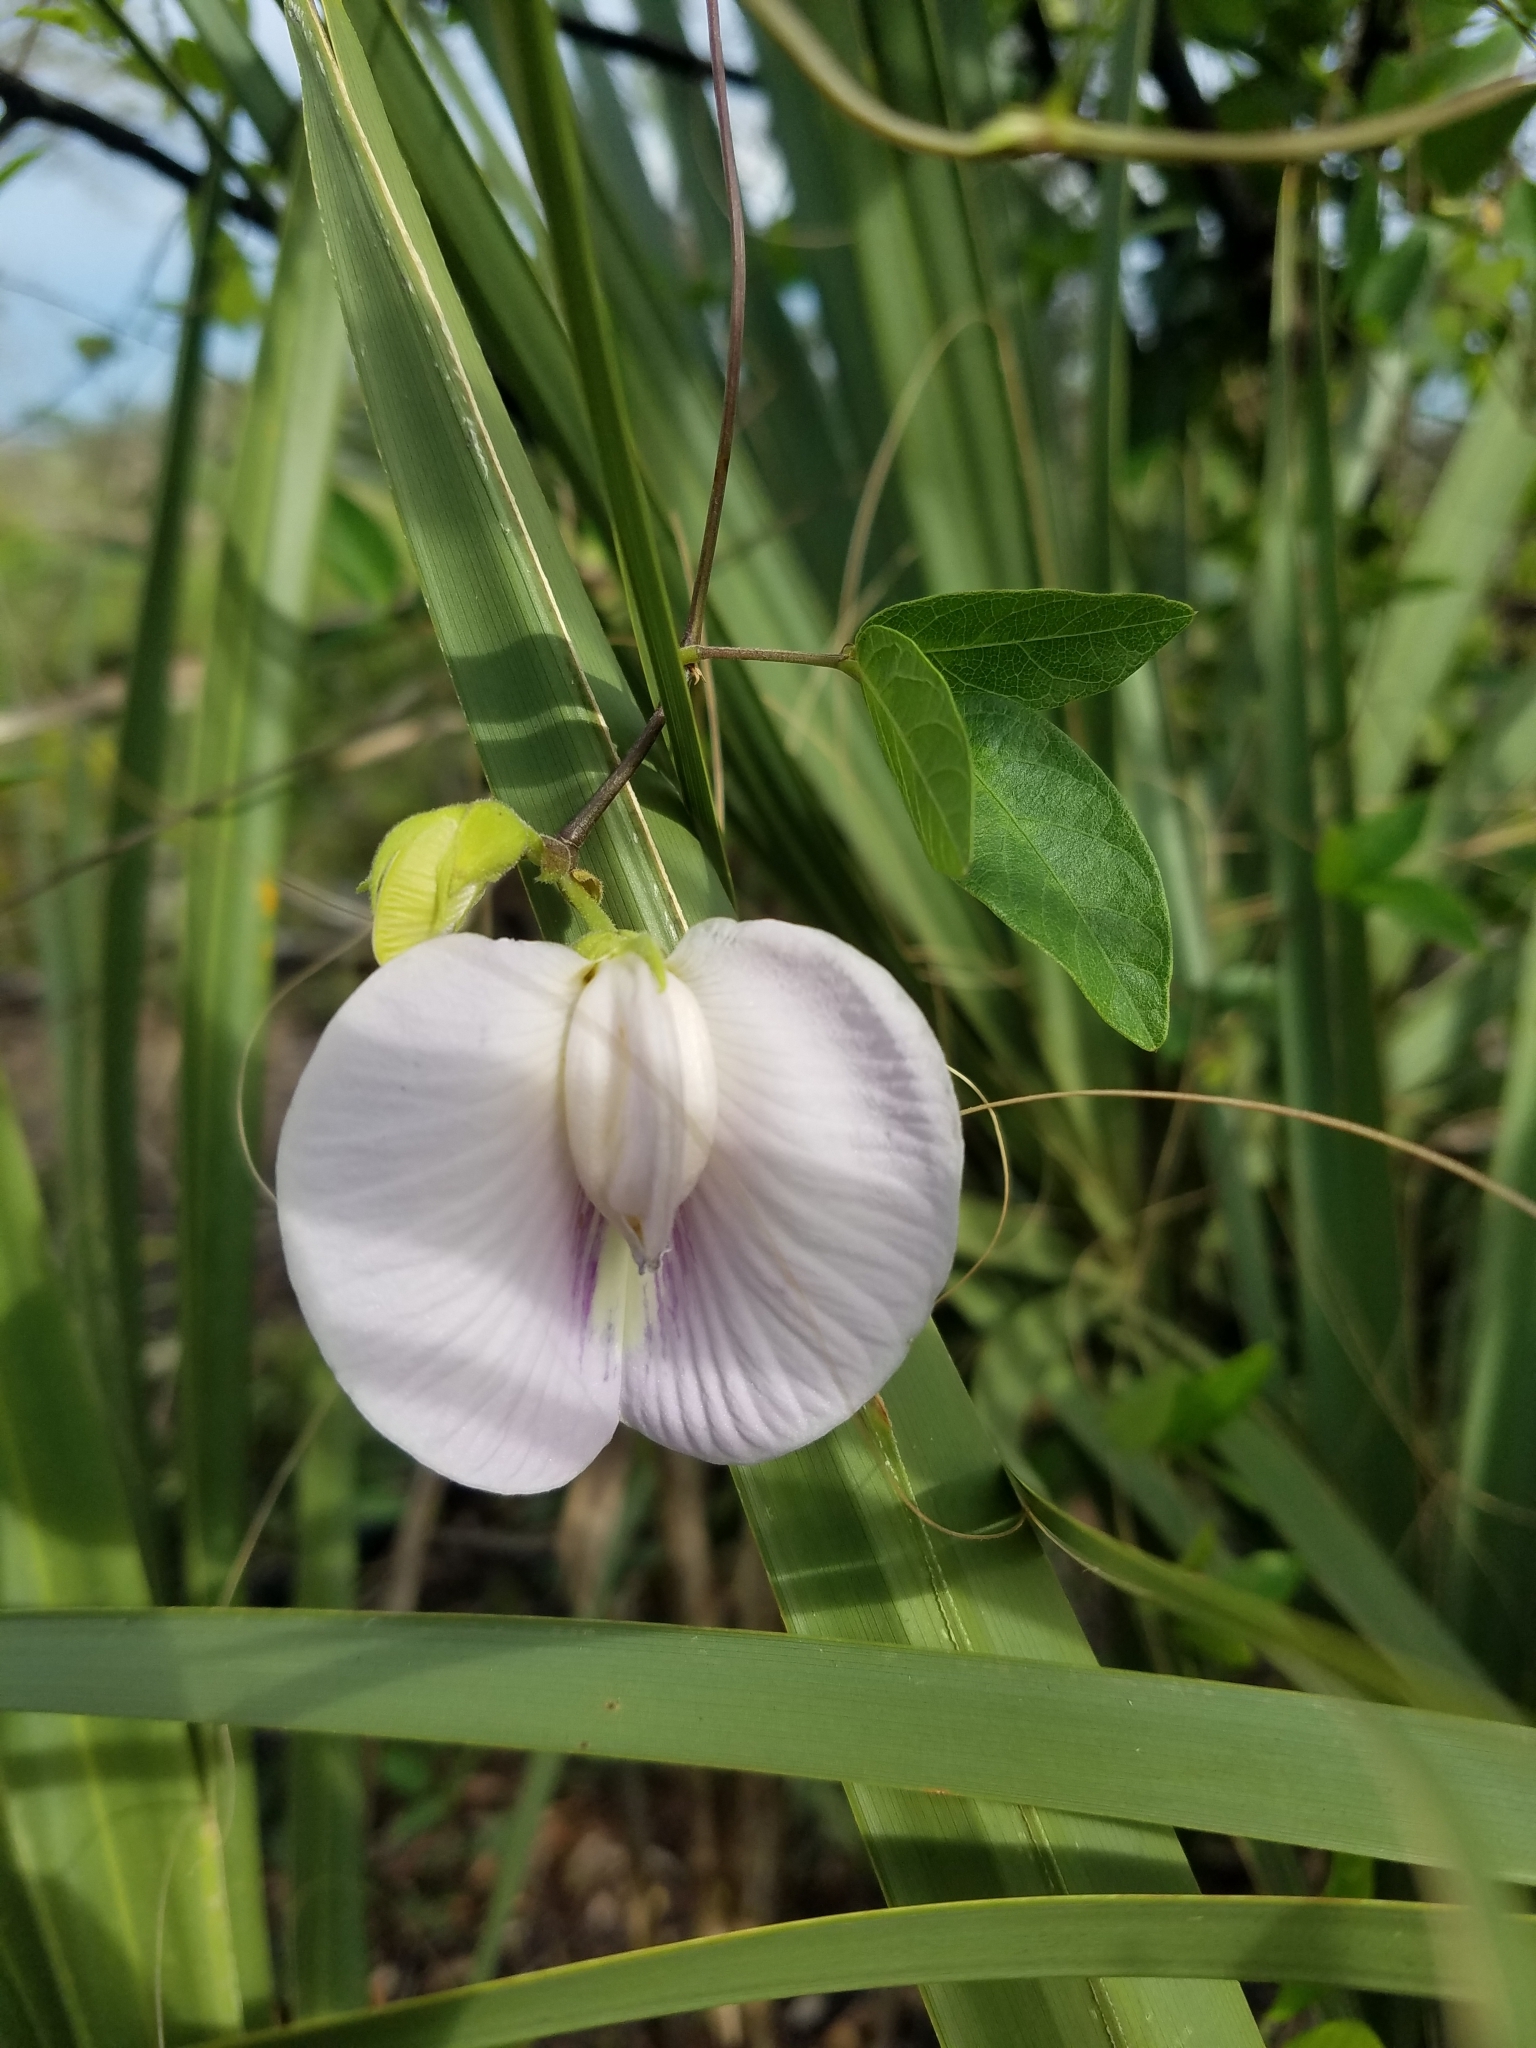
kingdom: Plantae
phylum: Tracheophyta
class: Magnoliopsida
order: Fabales
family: Fabaceae
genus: Centrosema
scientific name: Centrosema arenicola
